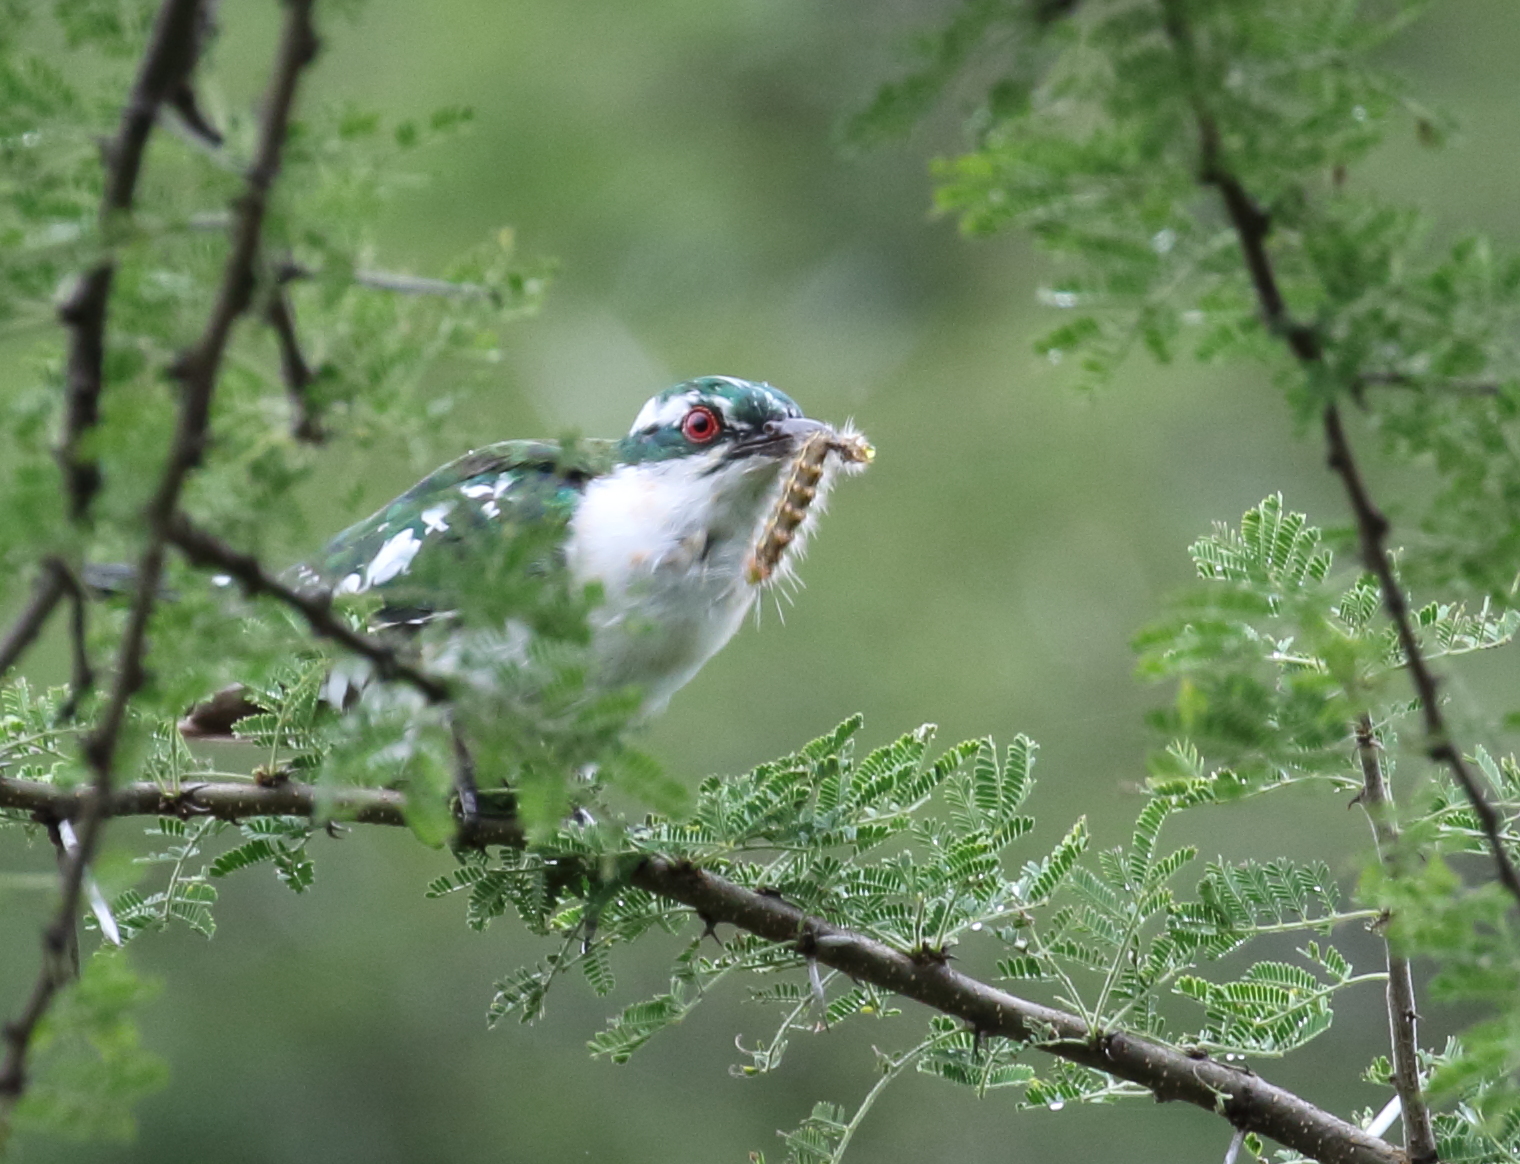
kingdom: Animalia
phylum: Chordata
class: Aves
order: Cuculiformes
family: Cuculidae
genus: Chrysococcyx
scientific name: Chrysococcyx caprius
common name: Diederik cuckoo
